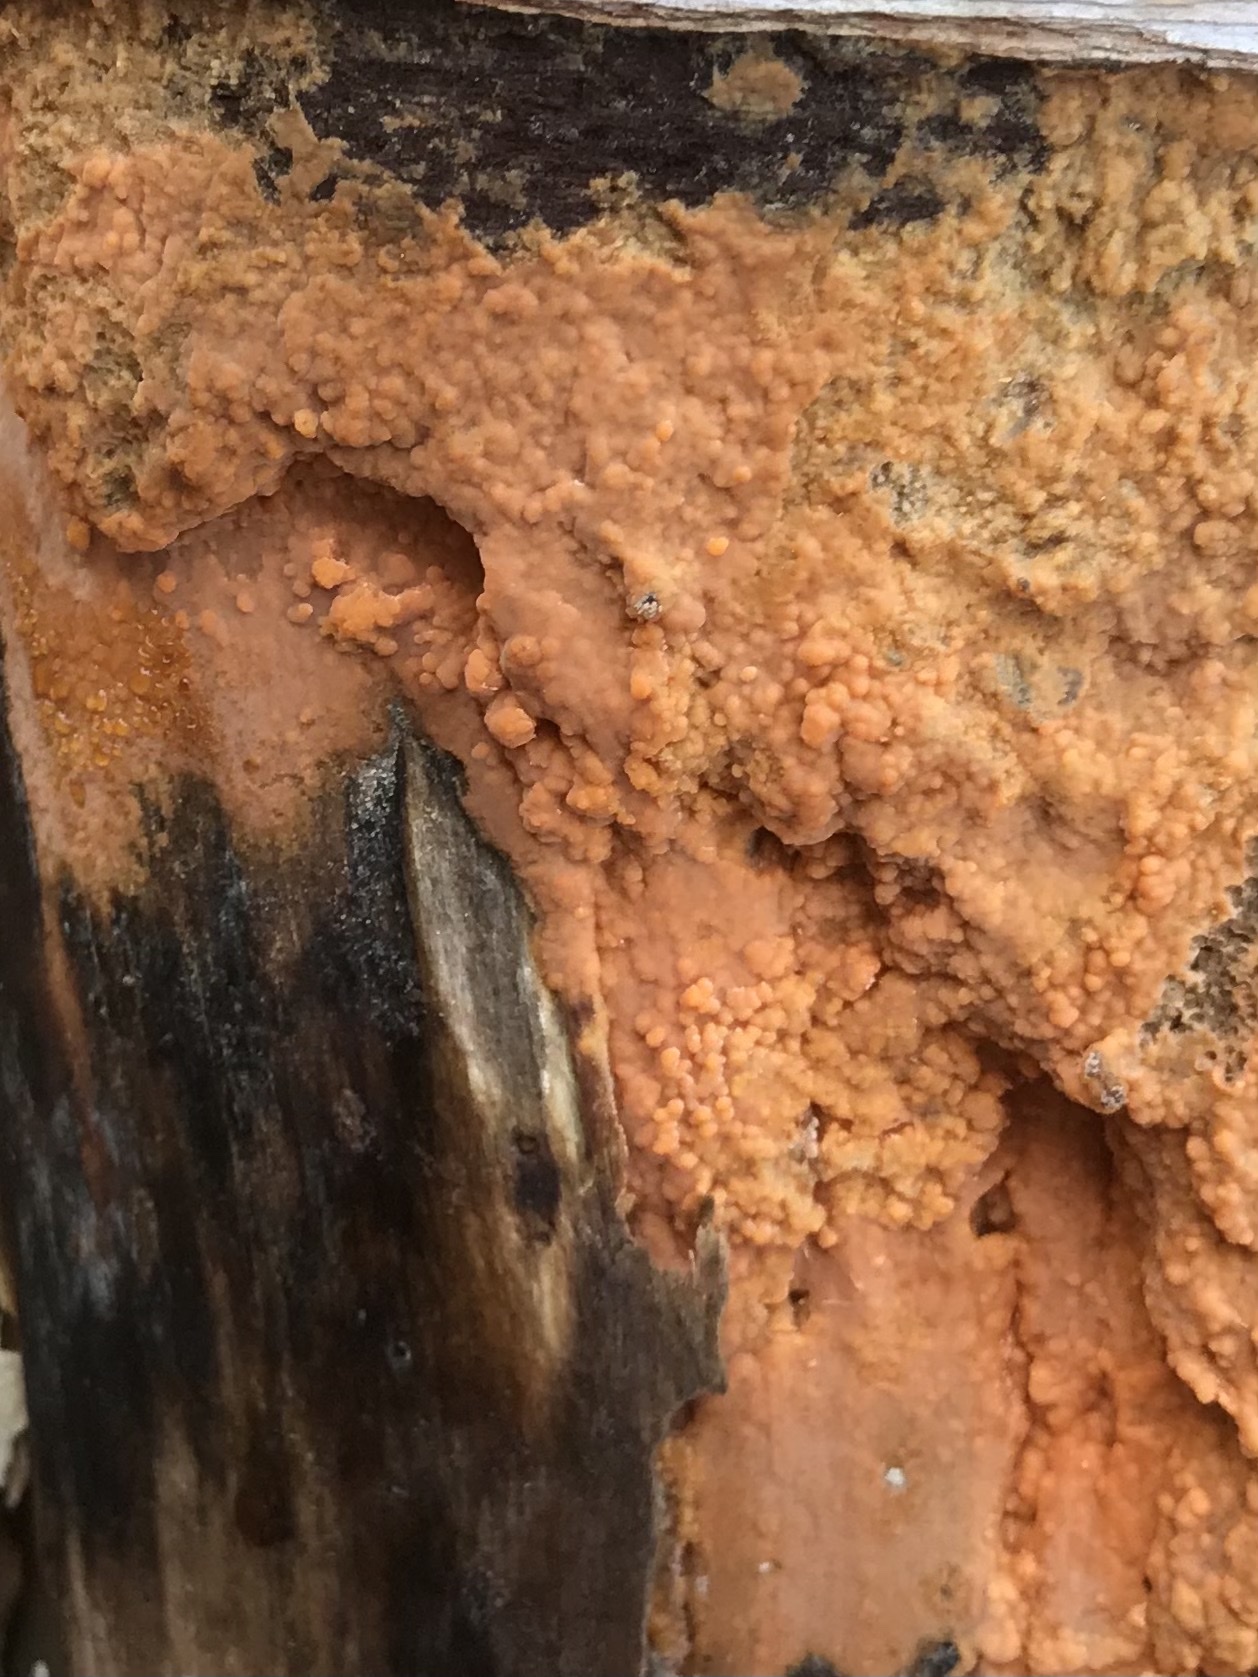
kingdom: Fungi
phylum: Basidiomycota
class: Tremellomycetes
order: Cystofilobasidiales
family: Cystofilobasidiaceae
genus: Cystofilobasidium
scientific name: Cystofilobasidium macerans
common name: Sap yeast
